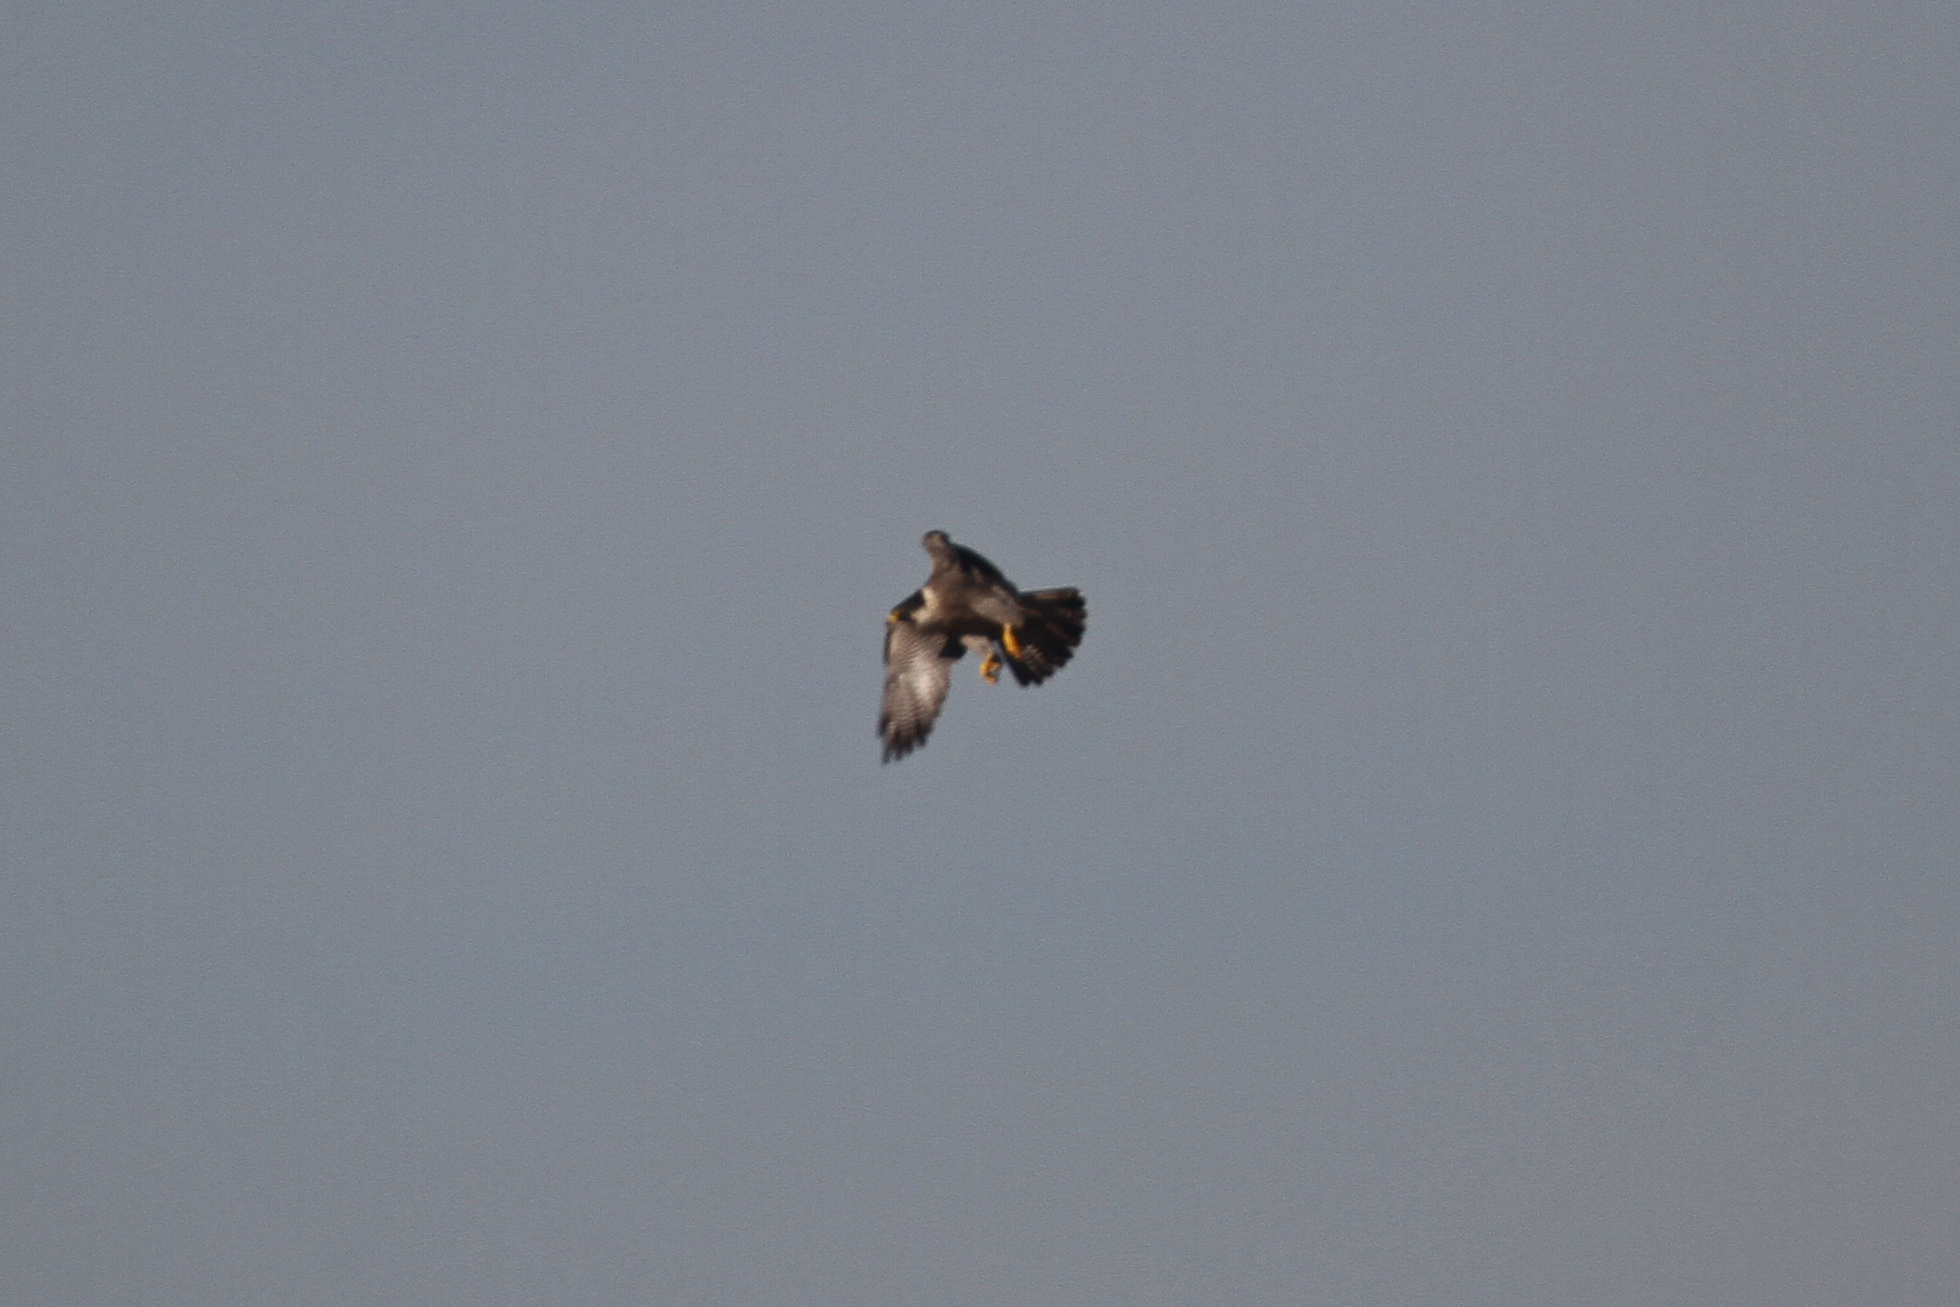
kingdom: Animalia
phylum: Chordata
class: Aves
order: Falconiformes
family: Falconidae
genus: Falco
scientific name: Falco peregrinus
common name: Peregrine falcon
